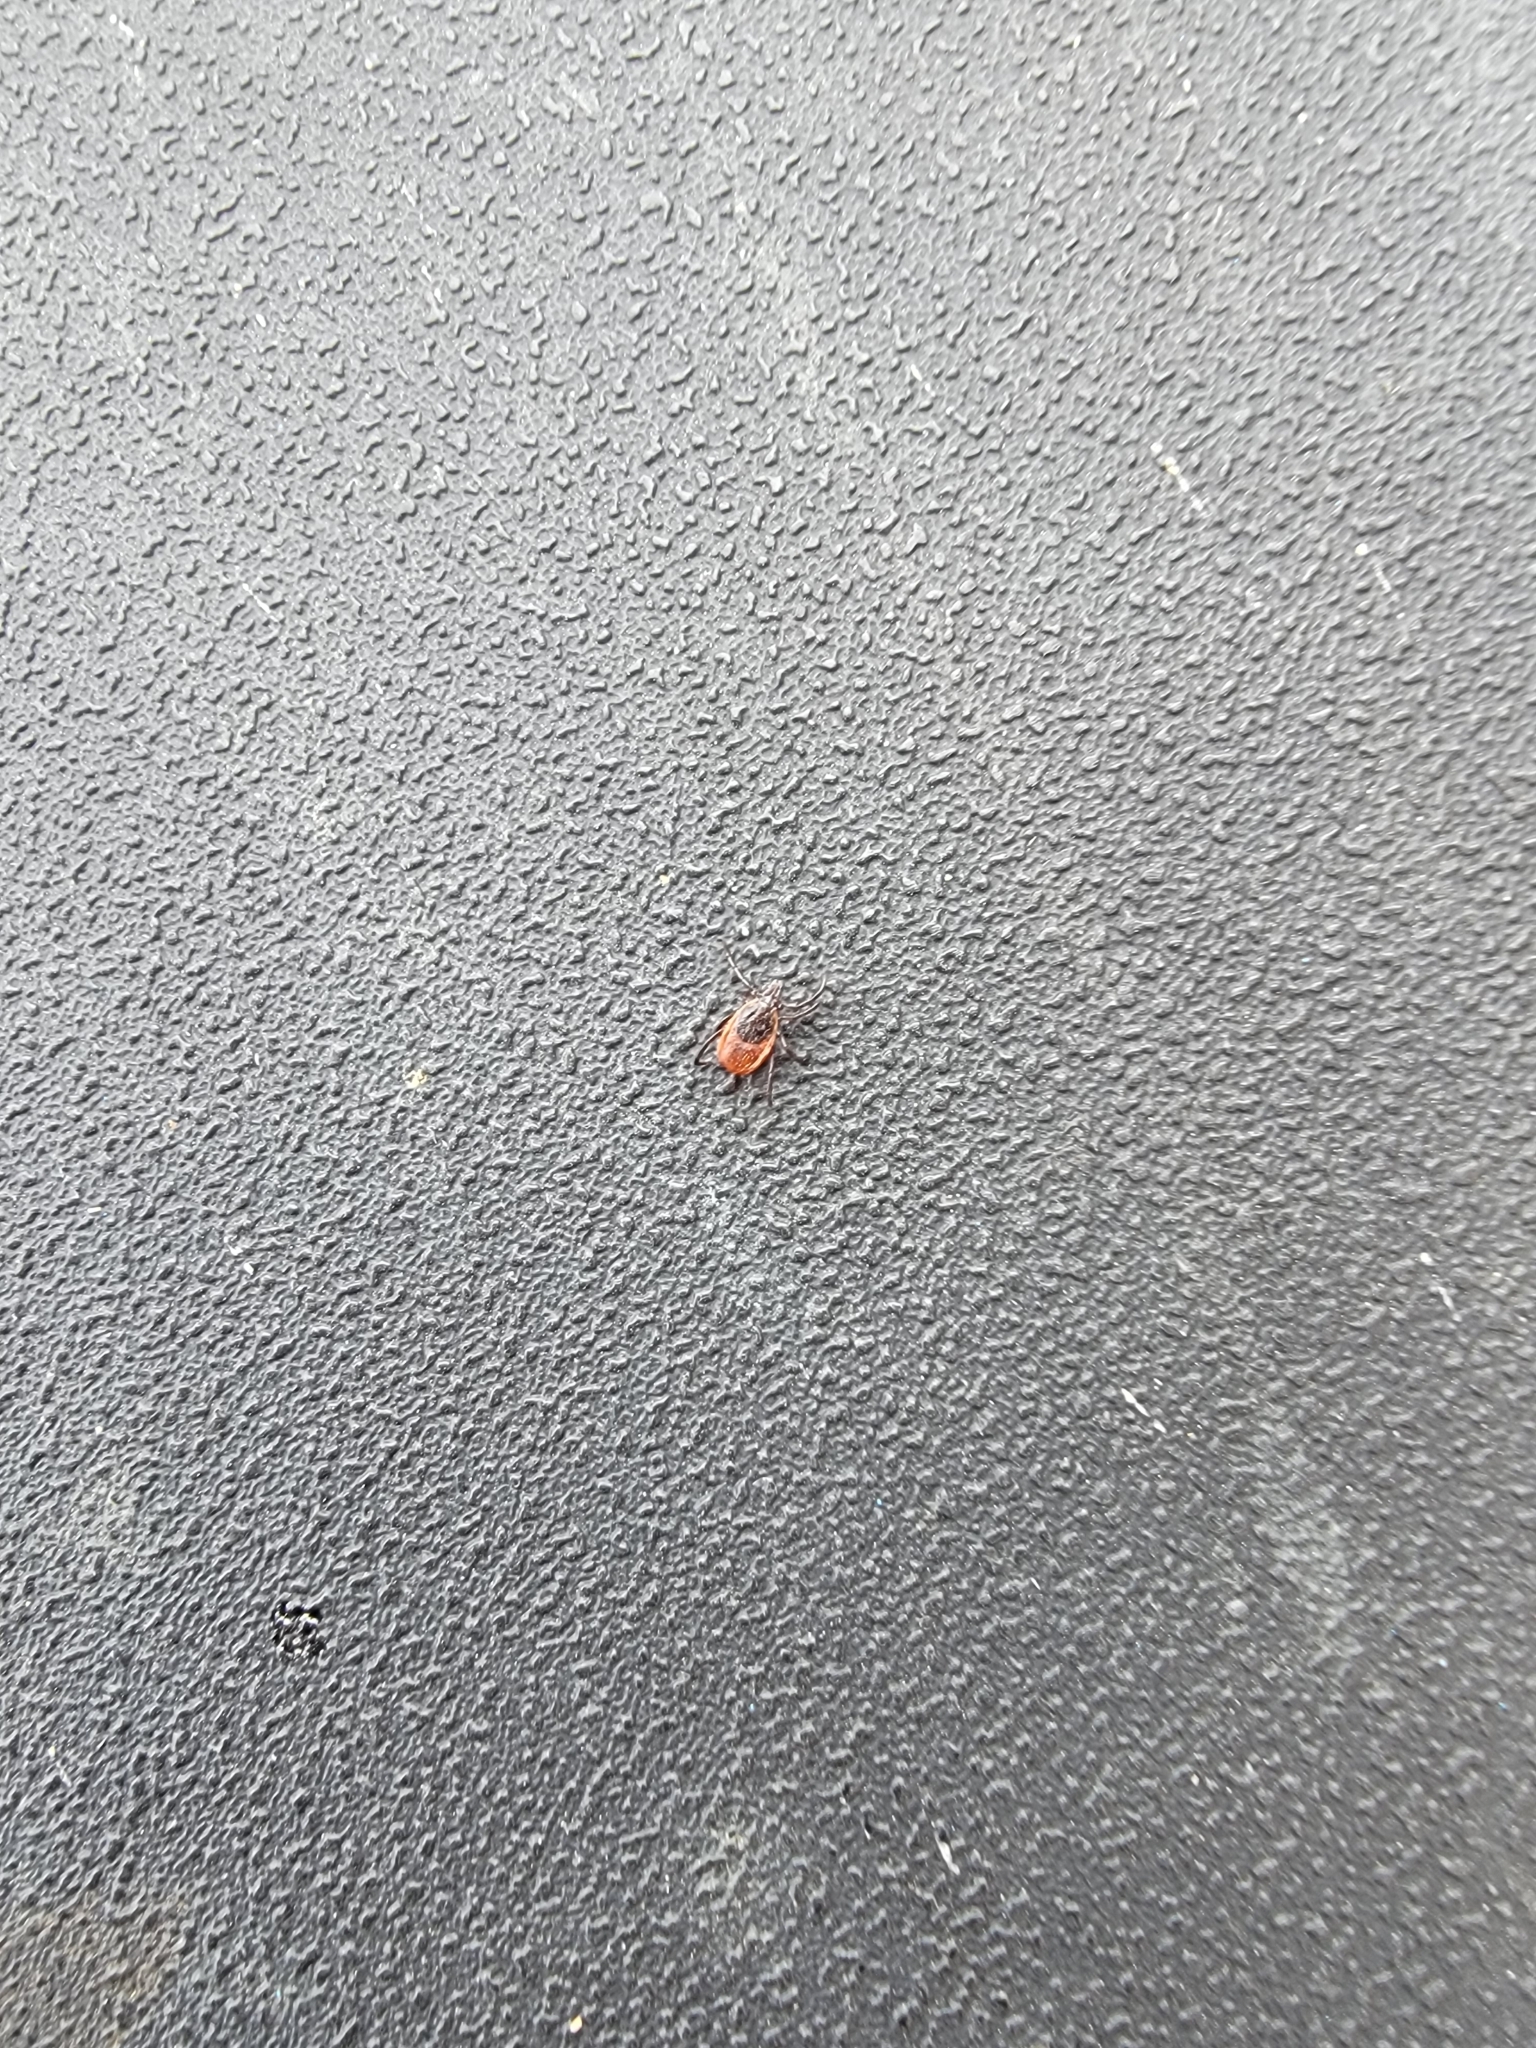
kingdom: Animalia
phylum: Arthropoda
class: Arachnida
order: Ixodida
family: Ixodidae
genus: Ixodes
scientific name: Ixodes scapularis
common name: Black legged tick
